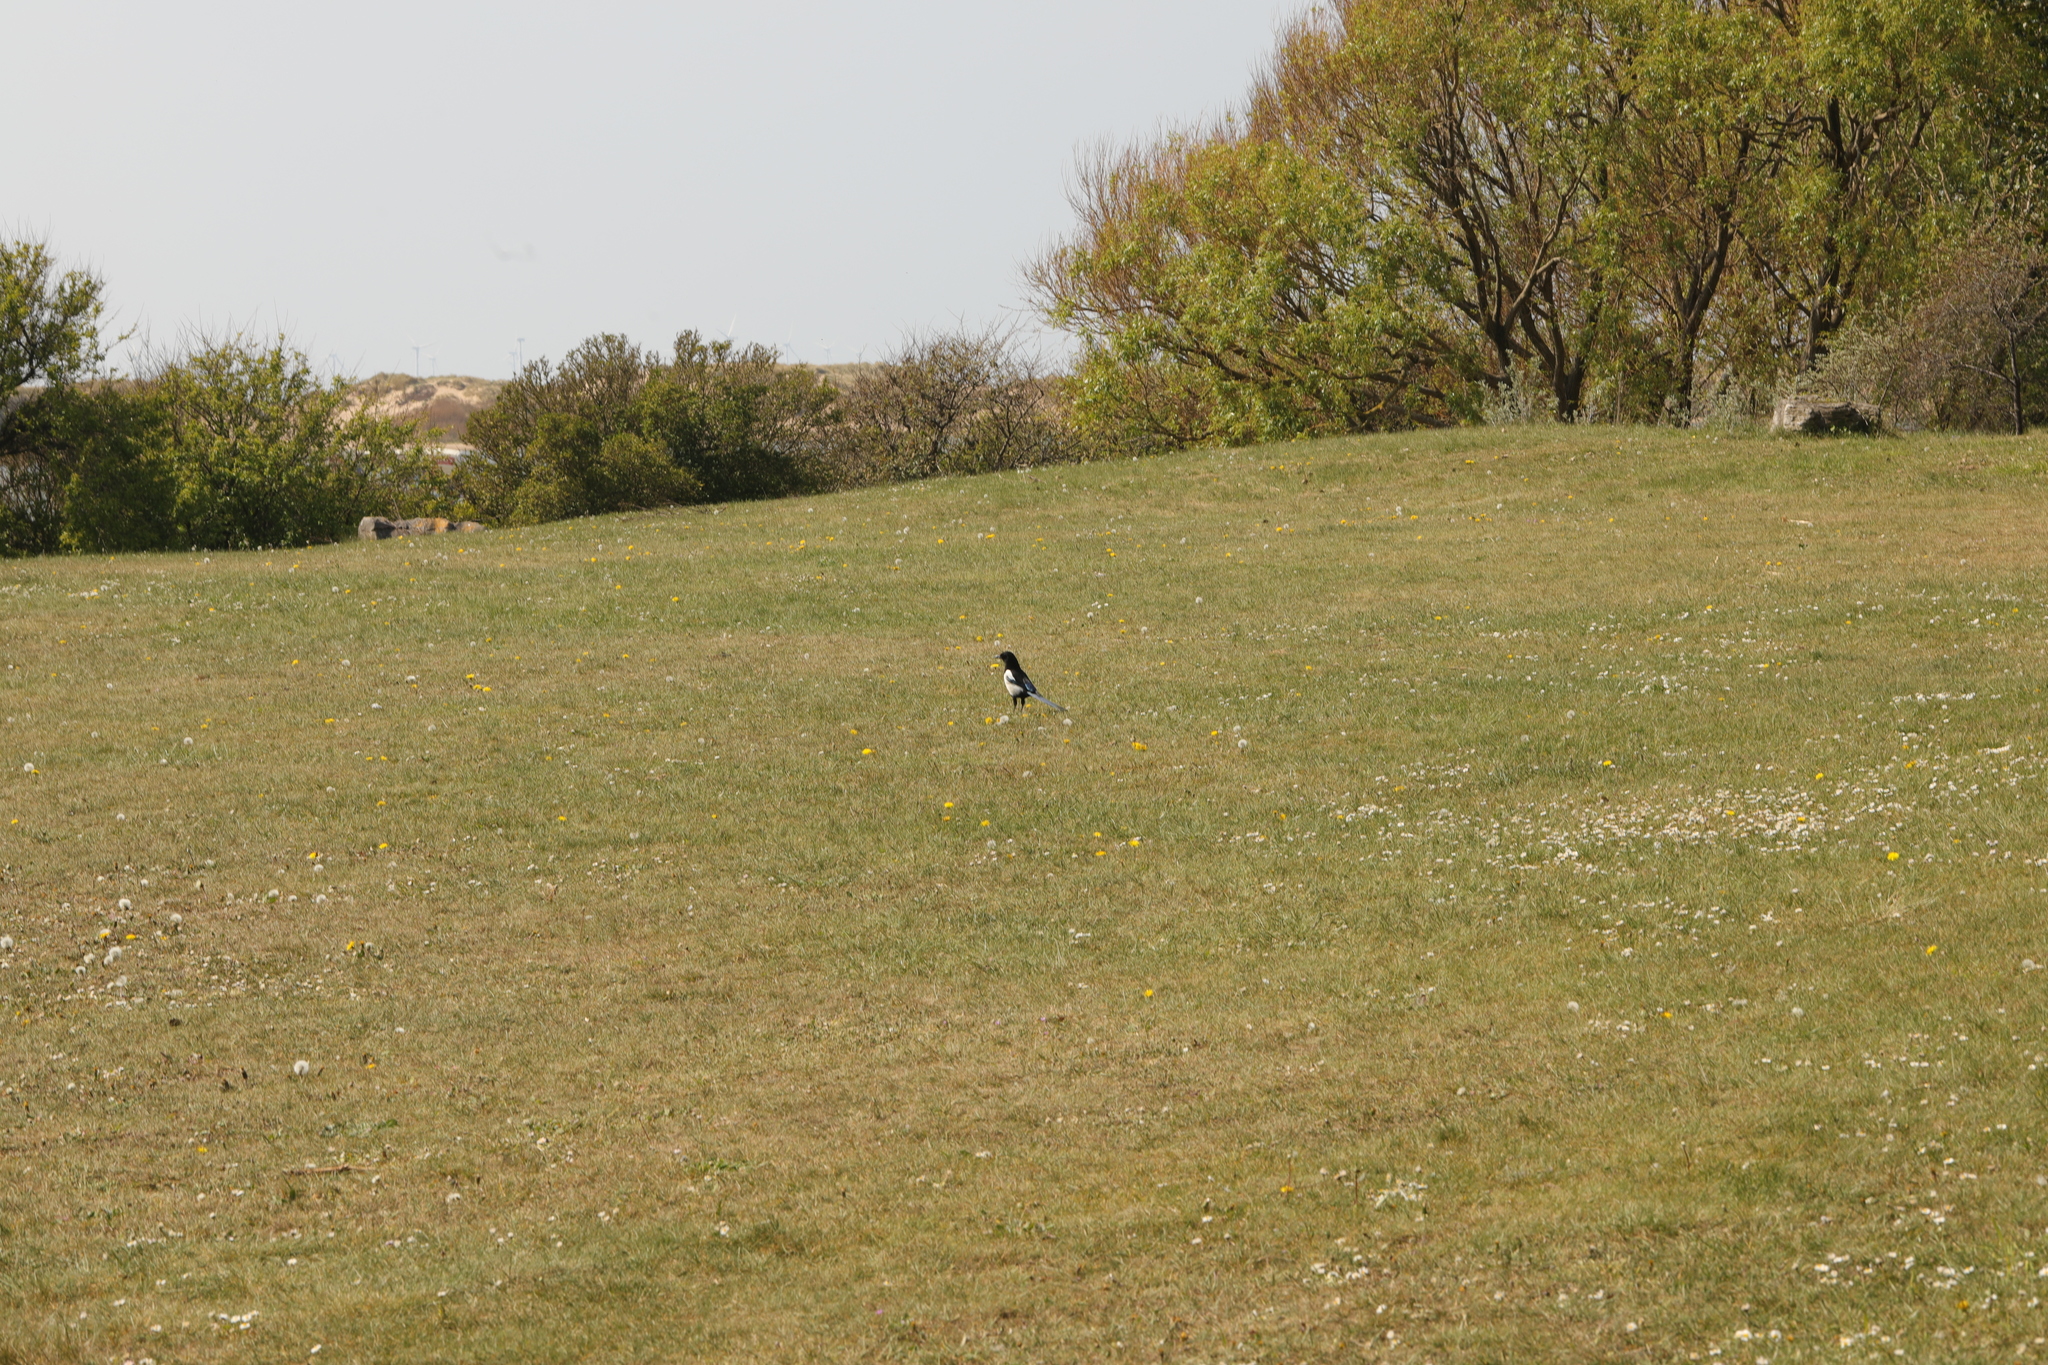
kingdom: Animalia
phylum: Chordata
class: Aves
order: Passeriformes
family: Corvidae
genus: Pica
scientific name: Pica pica
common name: Eurasian magpie
